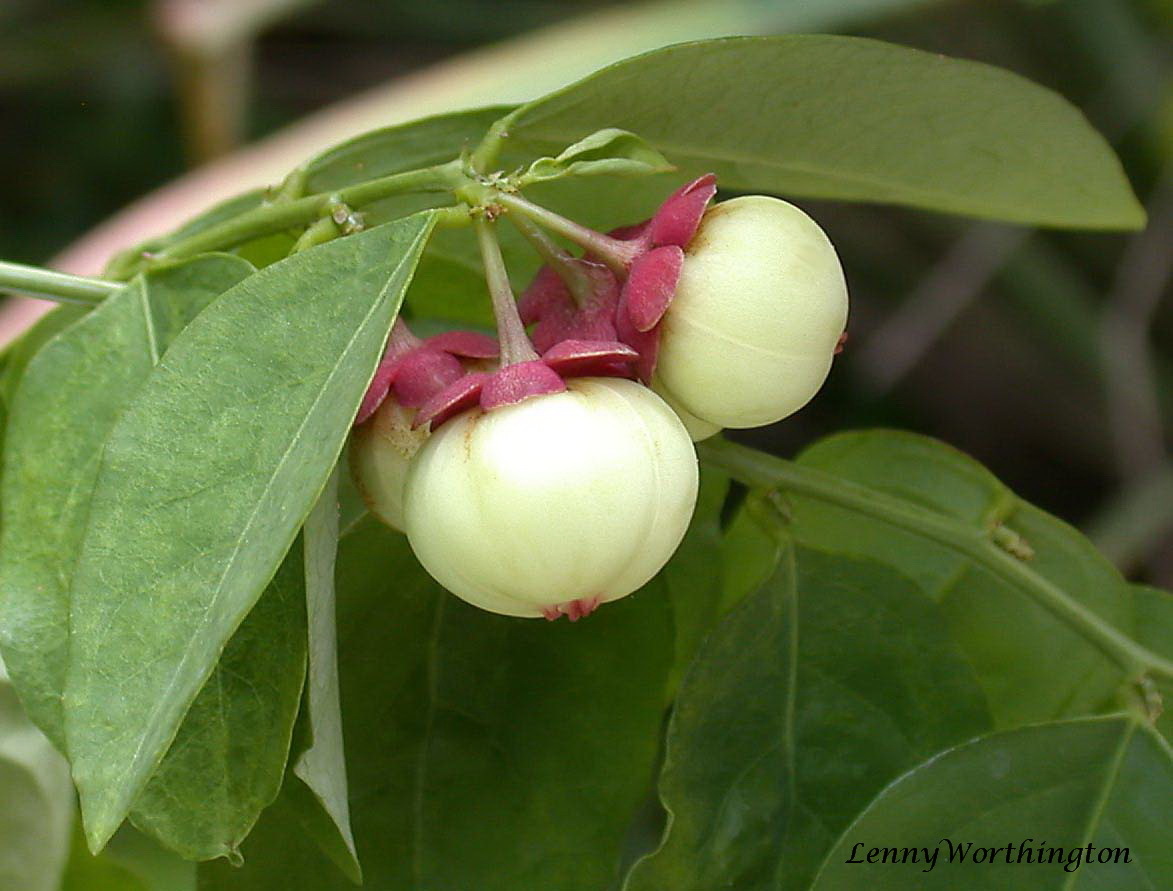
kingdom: Plantae
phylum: Tracheophyta
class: Magnoliopsida
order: Malpighiales
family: Phyllanthaceae
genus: Breynia
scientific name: Breynia androgyna
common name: Star gooseberry
